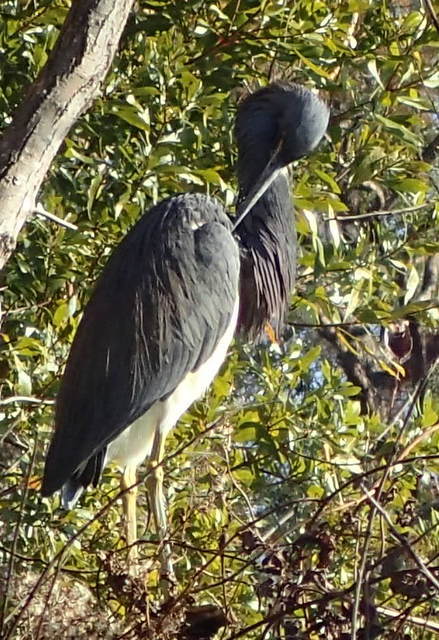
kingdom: Animalia
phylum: Chordata
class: Aves
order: Pelecaniformes
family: Ardeidae
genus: Egretta
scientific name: Egretta tricolor
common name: Tricolored heron
